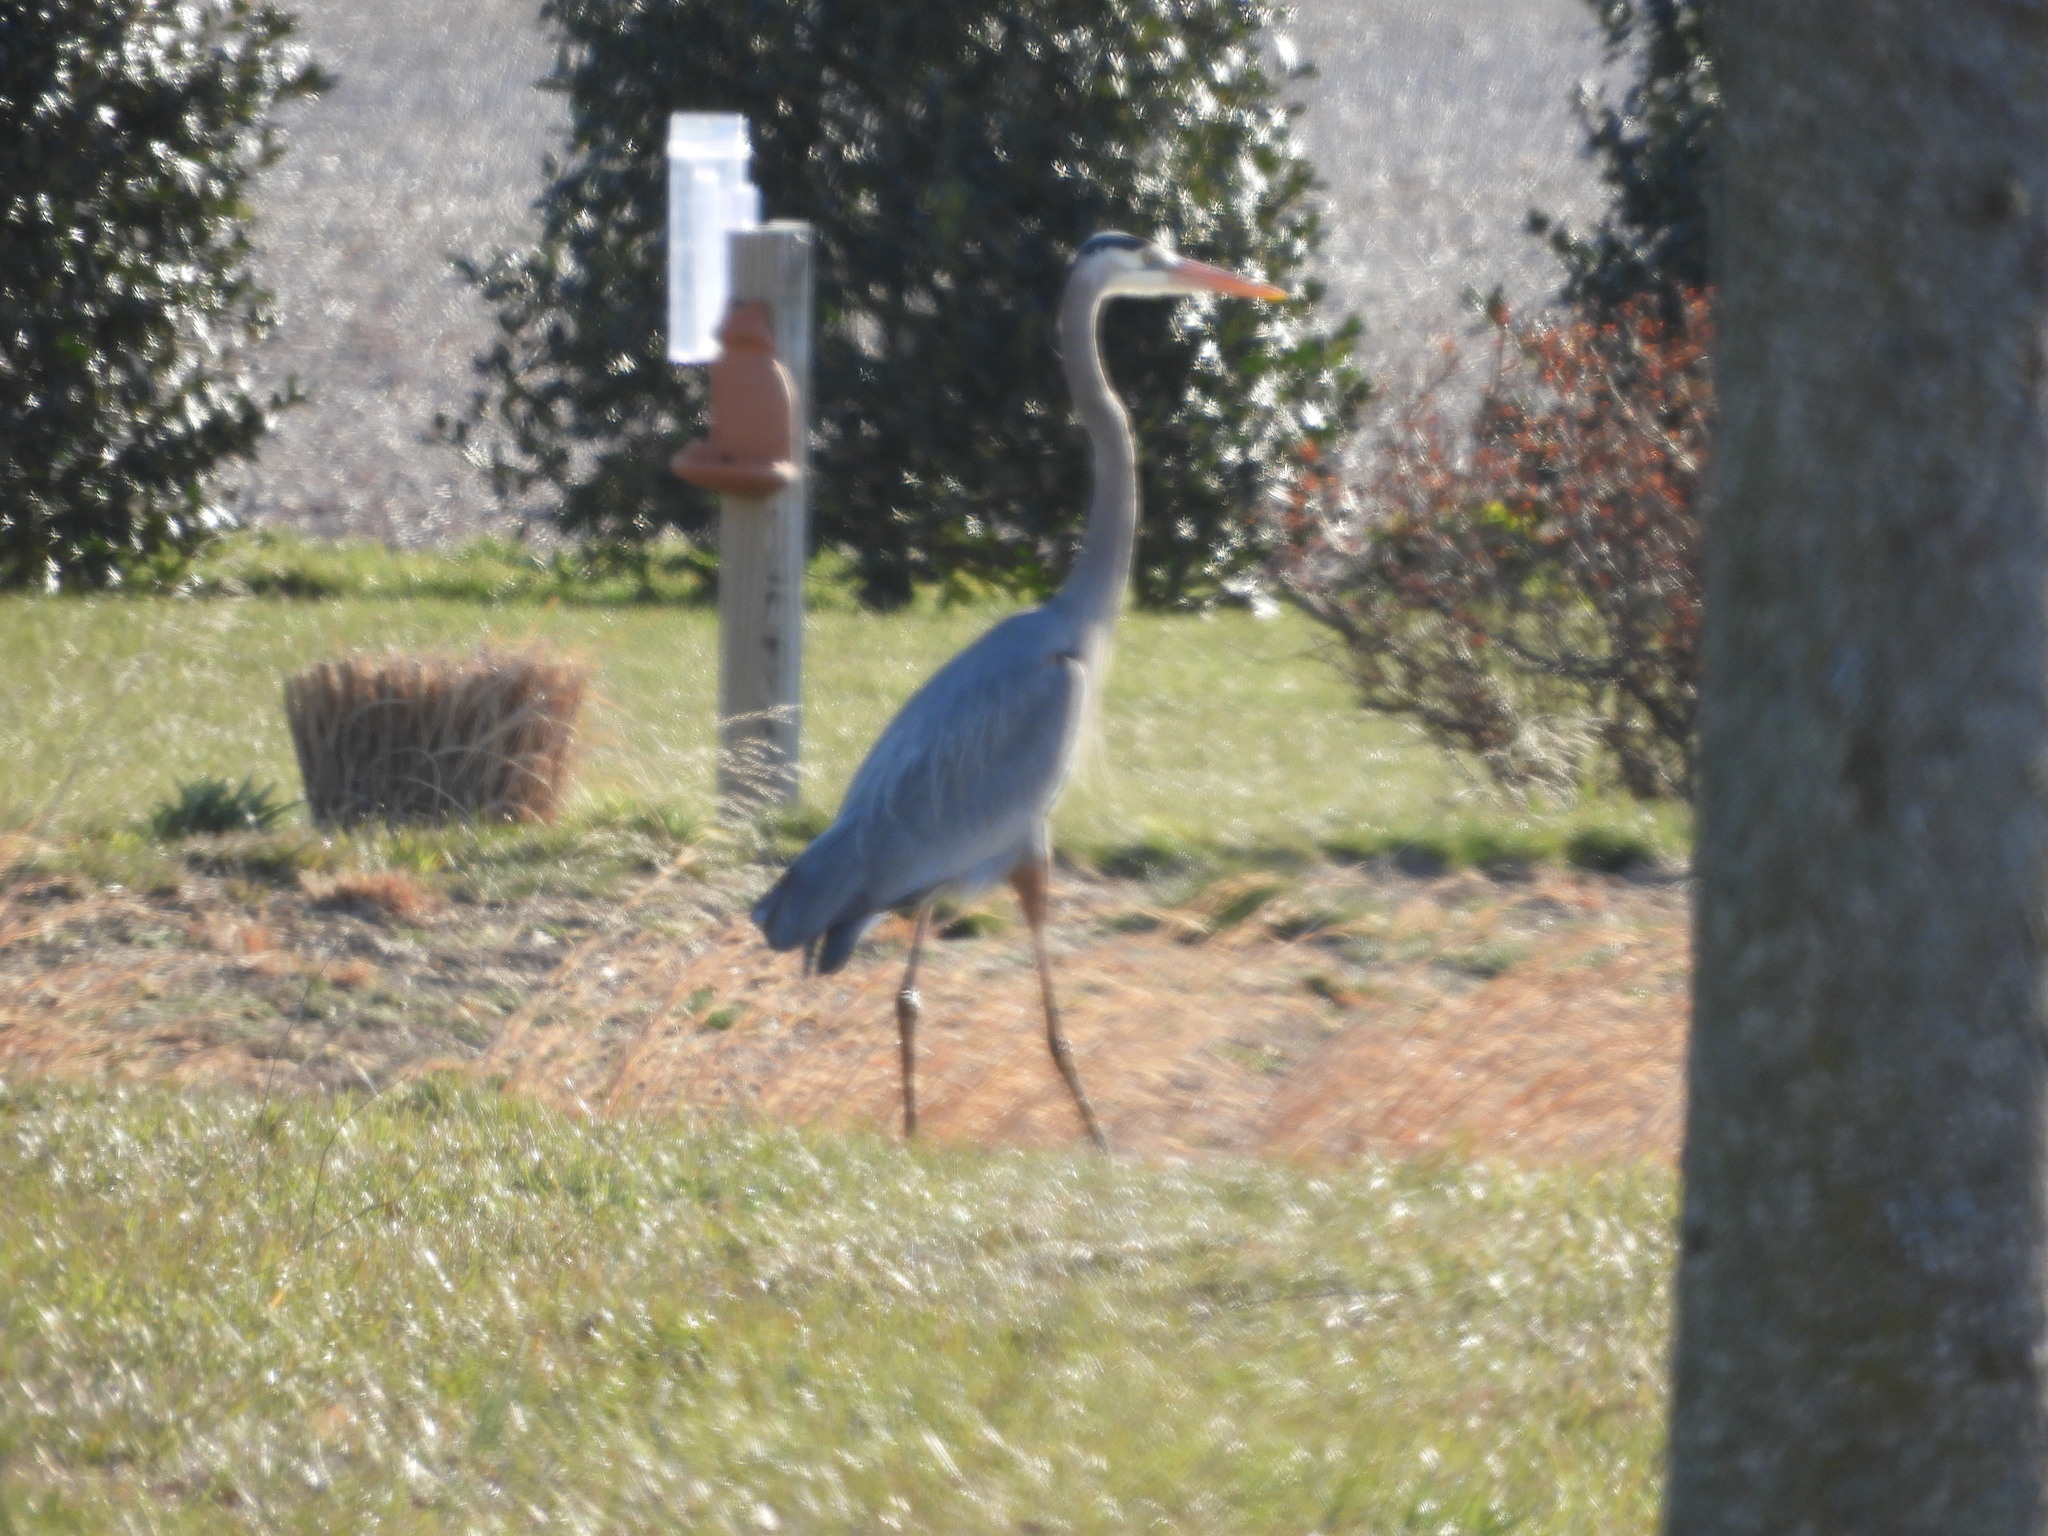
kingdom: Animalia
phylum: Chordata
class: Aves
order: Pelecaniformes
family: Ardeidae
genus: Ardea
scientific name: Ardea herodias
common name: Great blue heron
